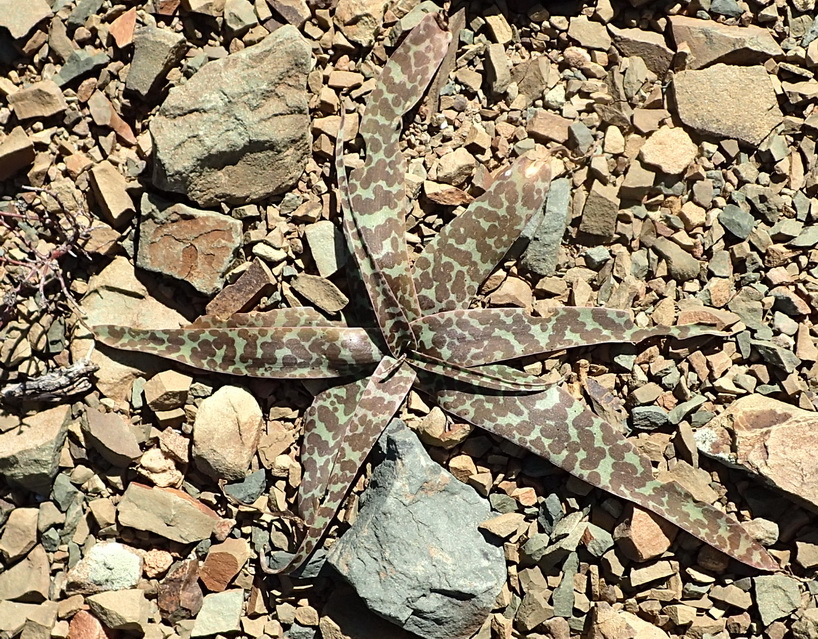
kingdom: Plantae
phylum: Tracheophyta
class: Liliopsida
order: Asparagales
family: Asparagaceae
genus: Ledebouria
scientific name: Ledebouria apertiflora
